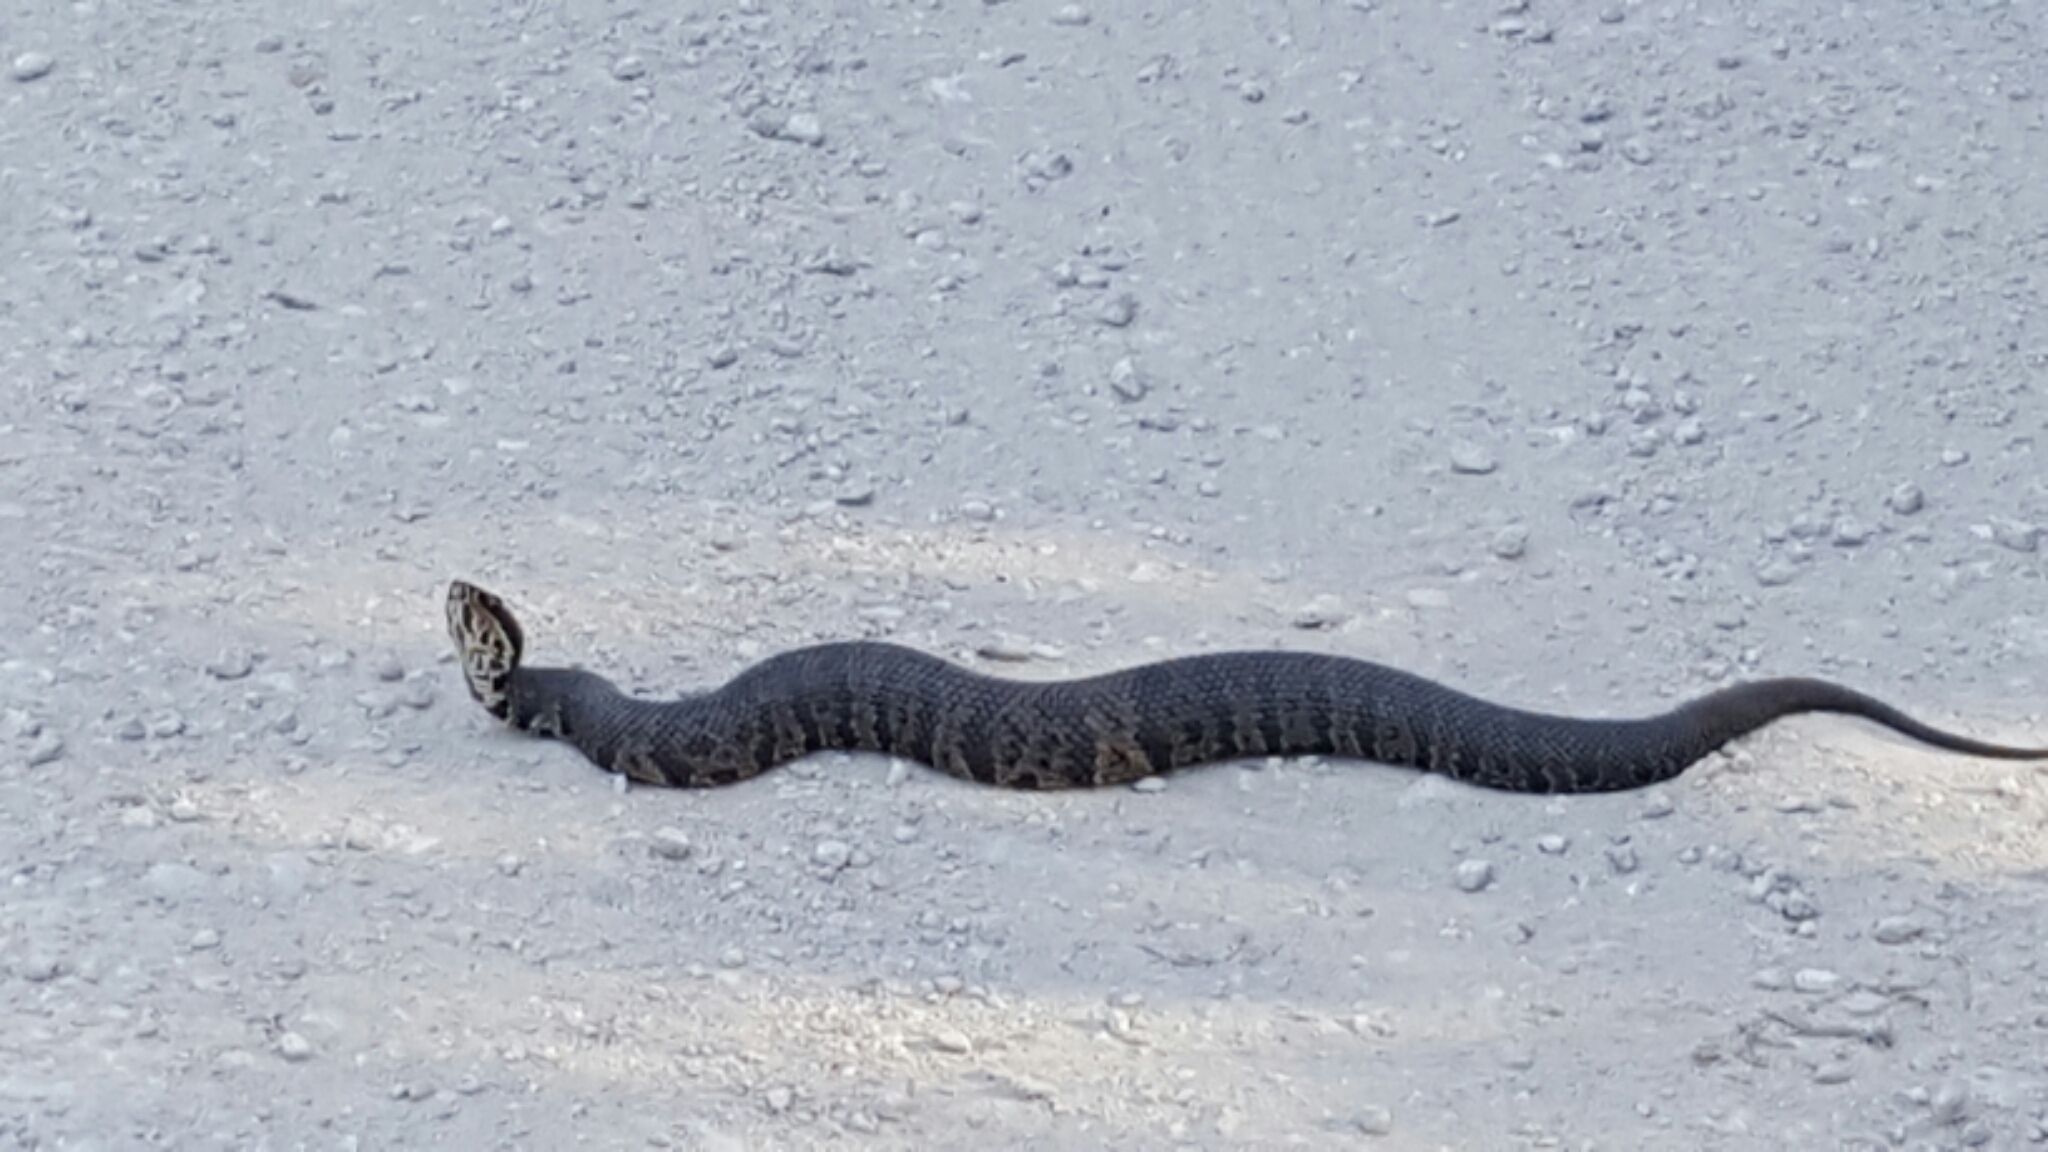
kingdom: Animalia
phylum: Chordata
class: Squamata
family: Viperidae
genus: Agkistrodon
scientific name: Agkistrodon conanti
